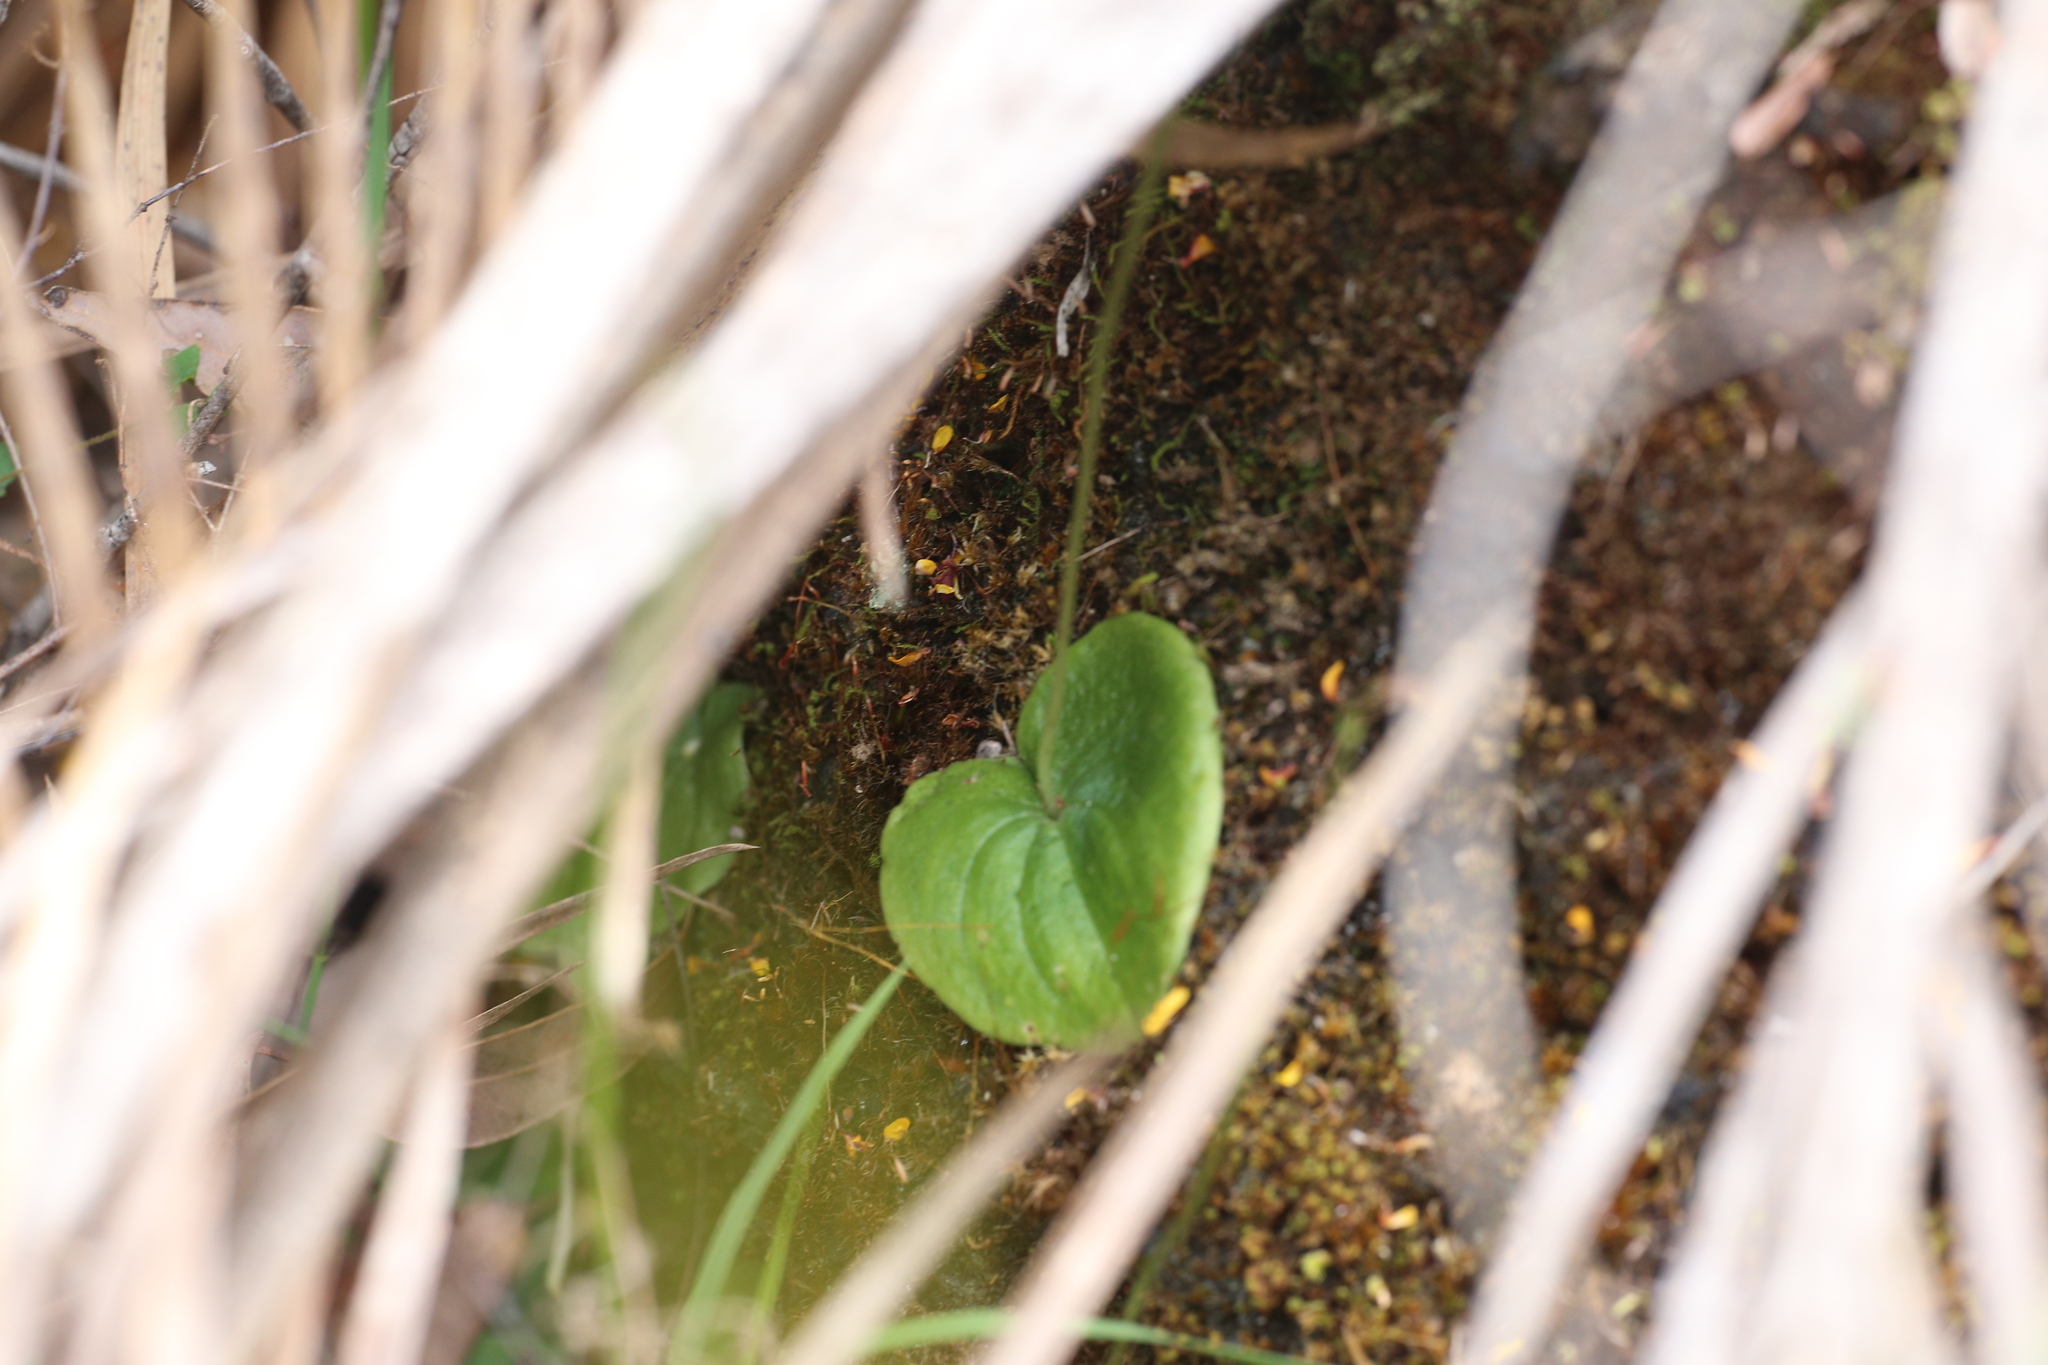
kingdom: Plantae
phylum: Tracheophyta
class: Liliopsida
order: Asparagales
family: Orchidaceae
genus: Cyrtostylis
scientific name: Cyrtostylis huegelii
